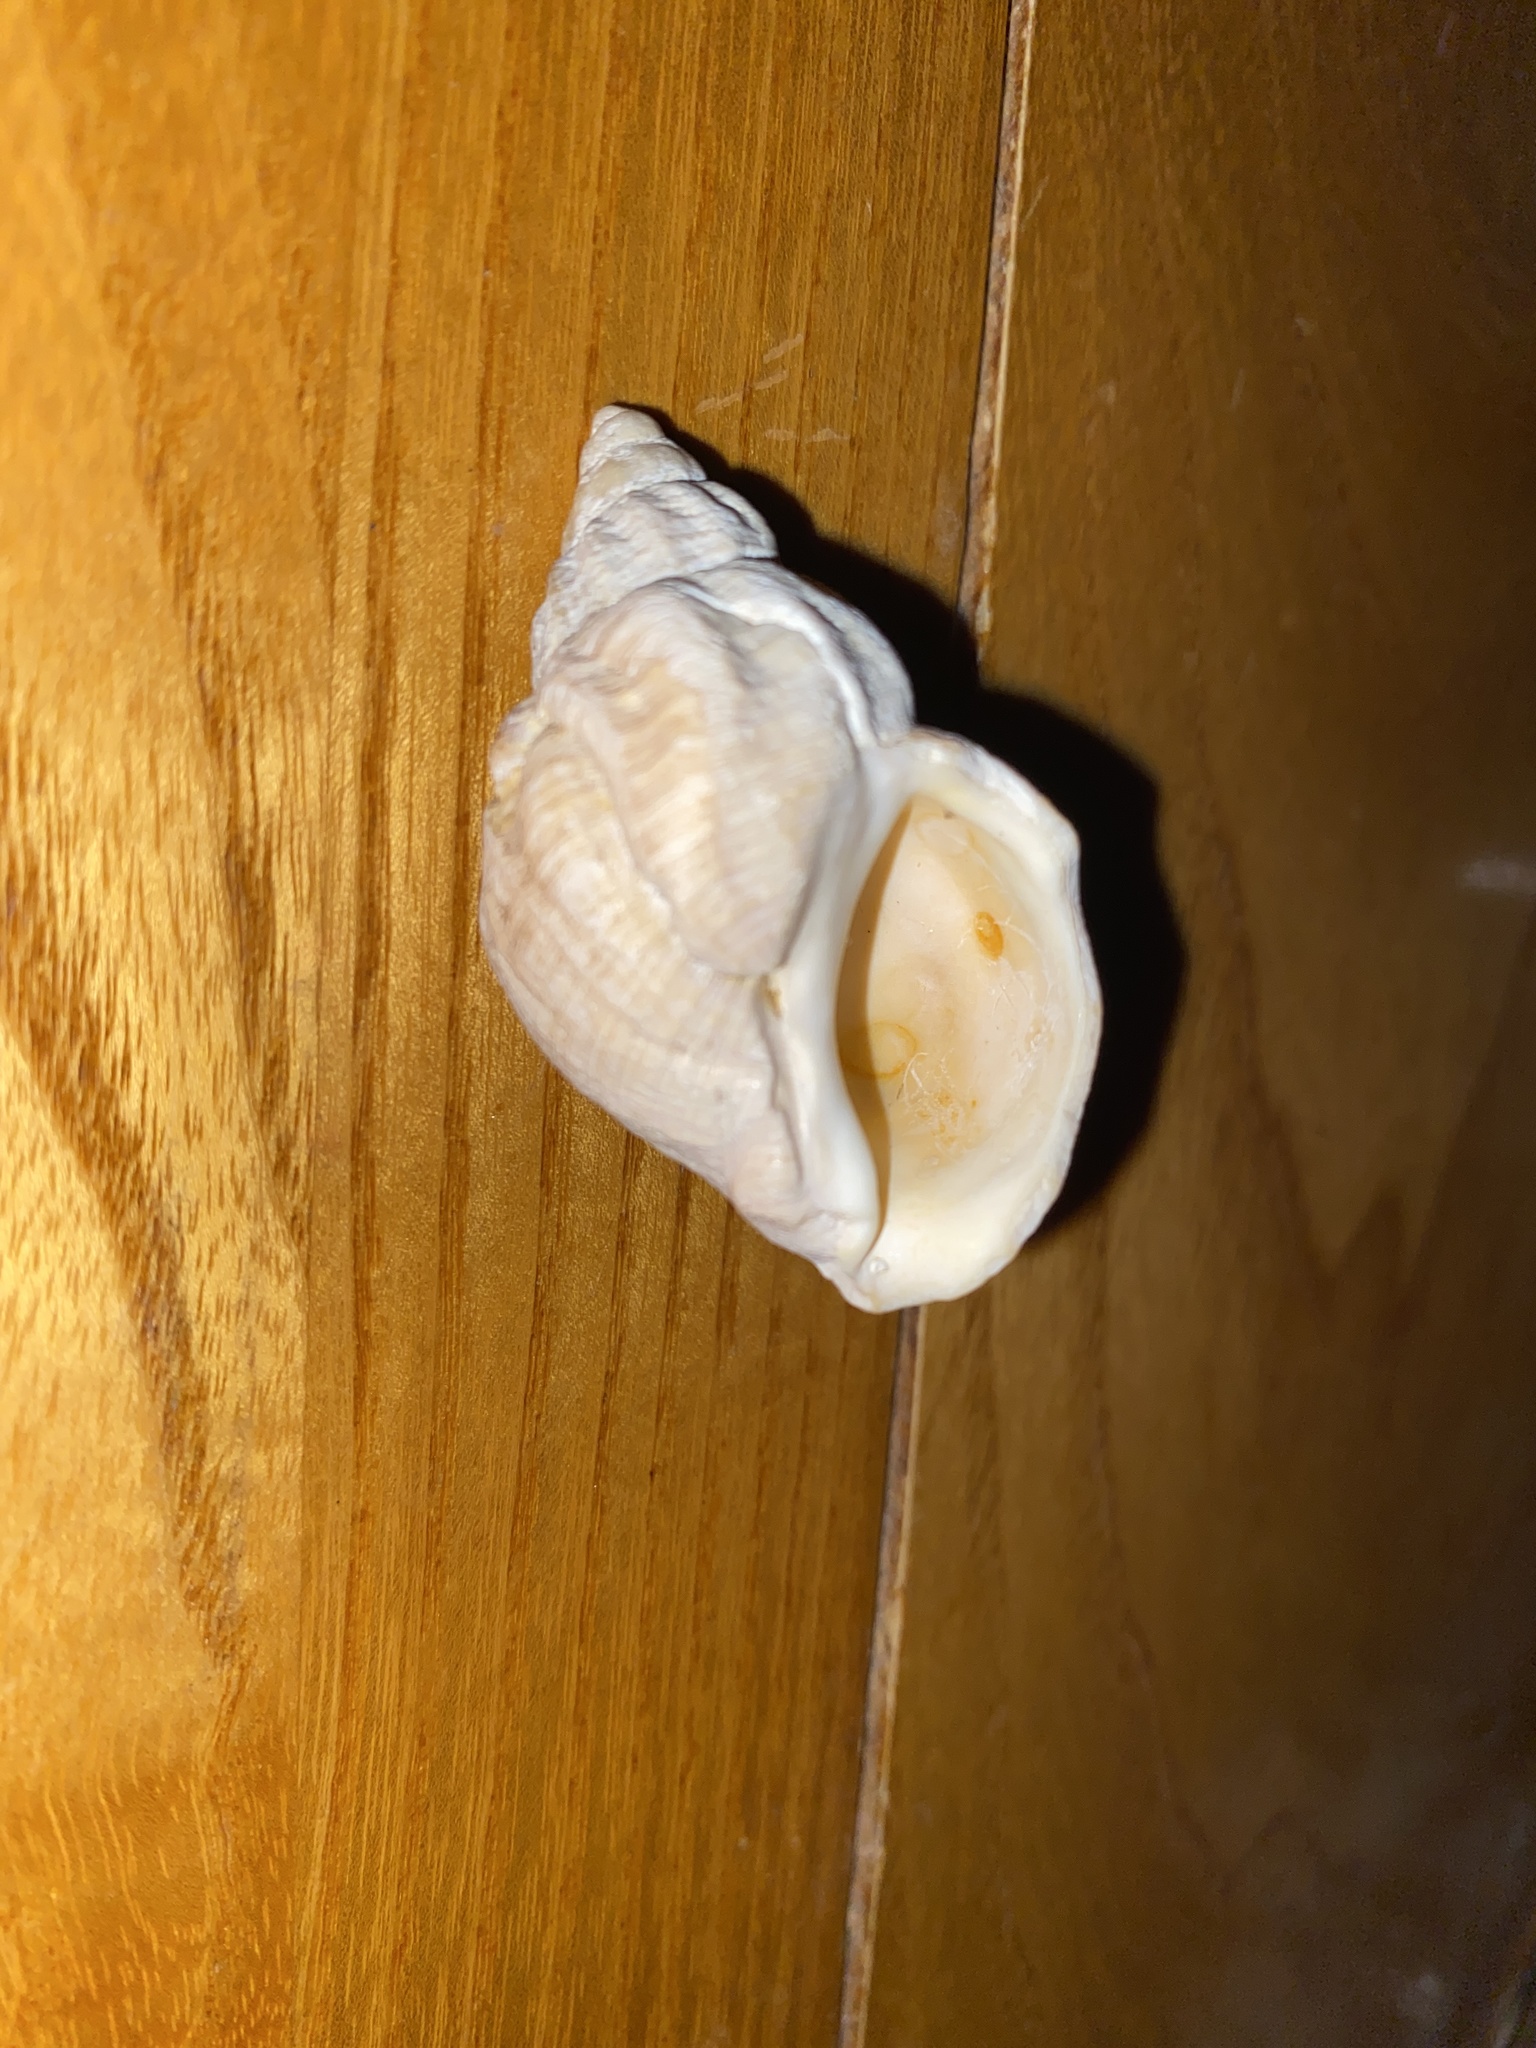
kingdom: Animalia
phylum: Mollusca
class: Gastropoda
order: Neogastropoda
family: Buccinidae
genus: Buccinum
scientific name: Buccinum undatum
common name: Common whelk
